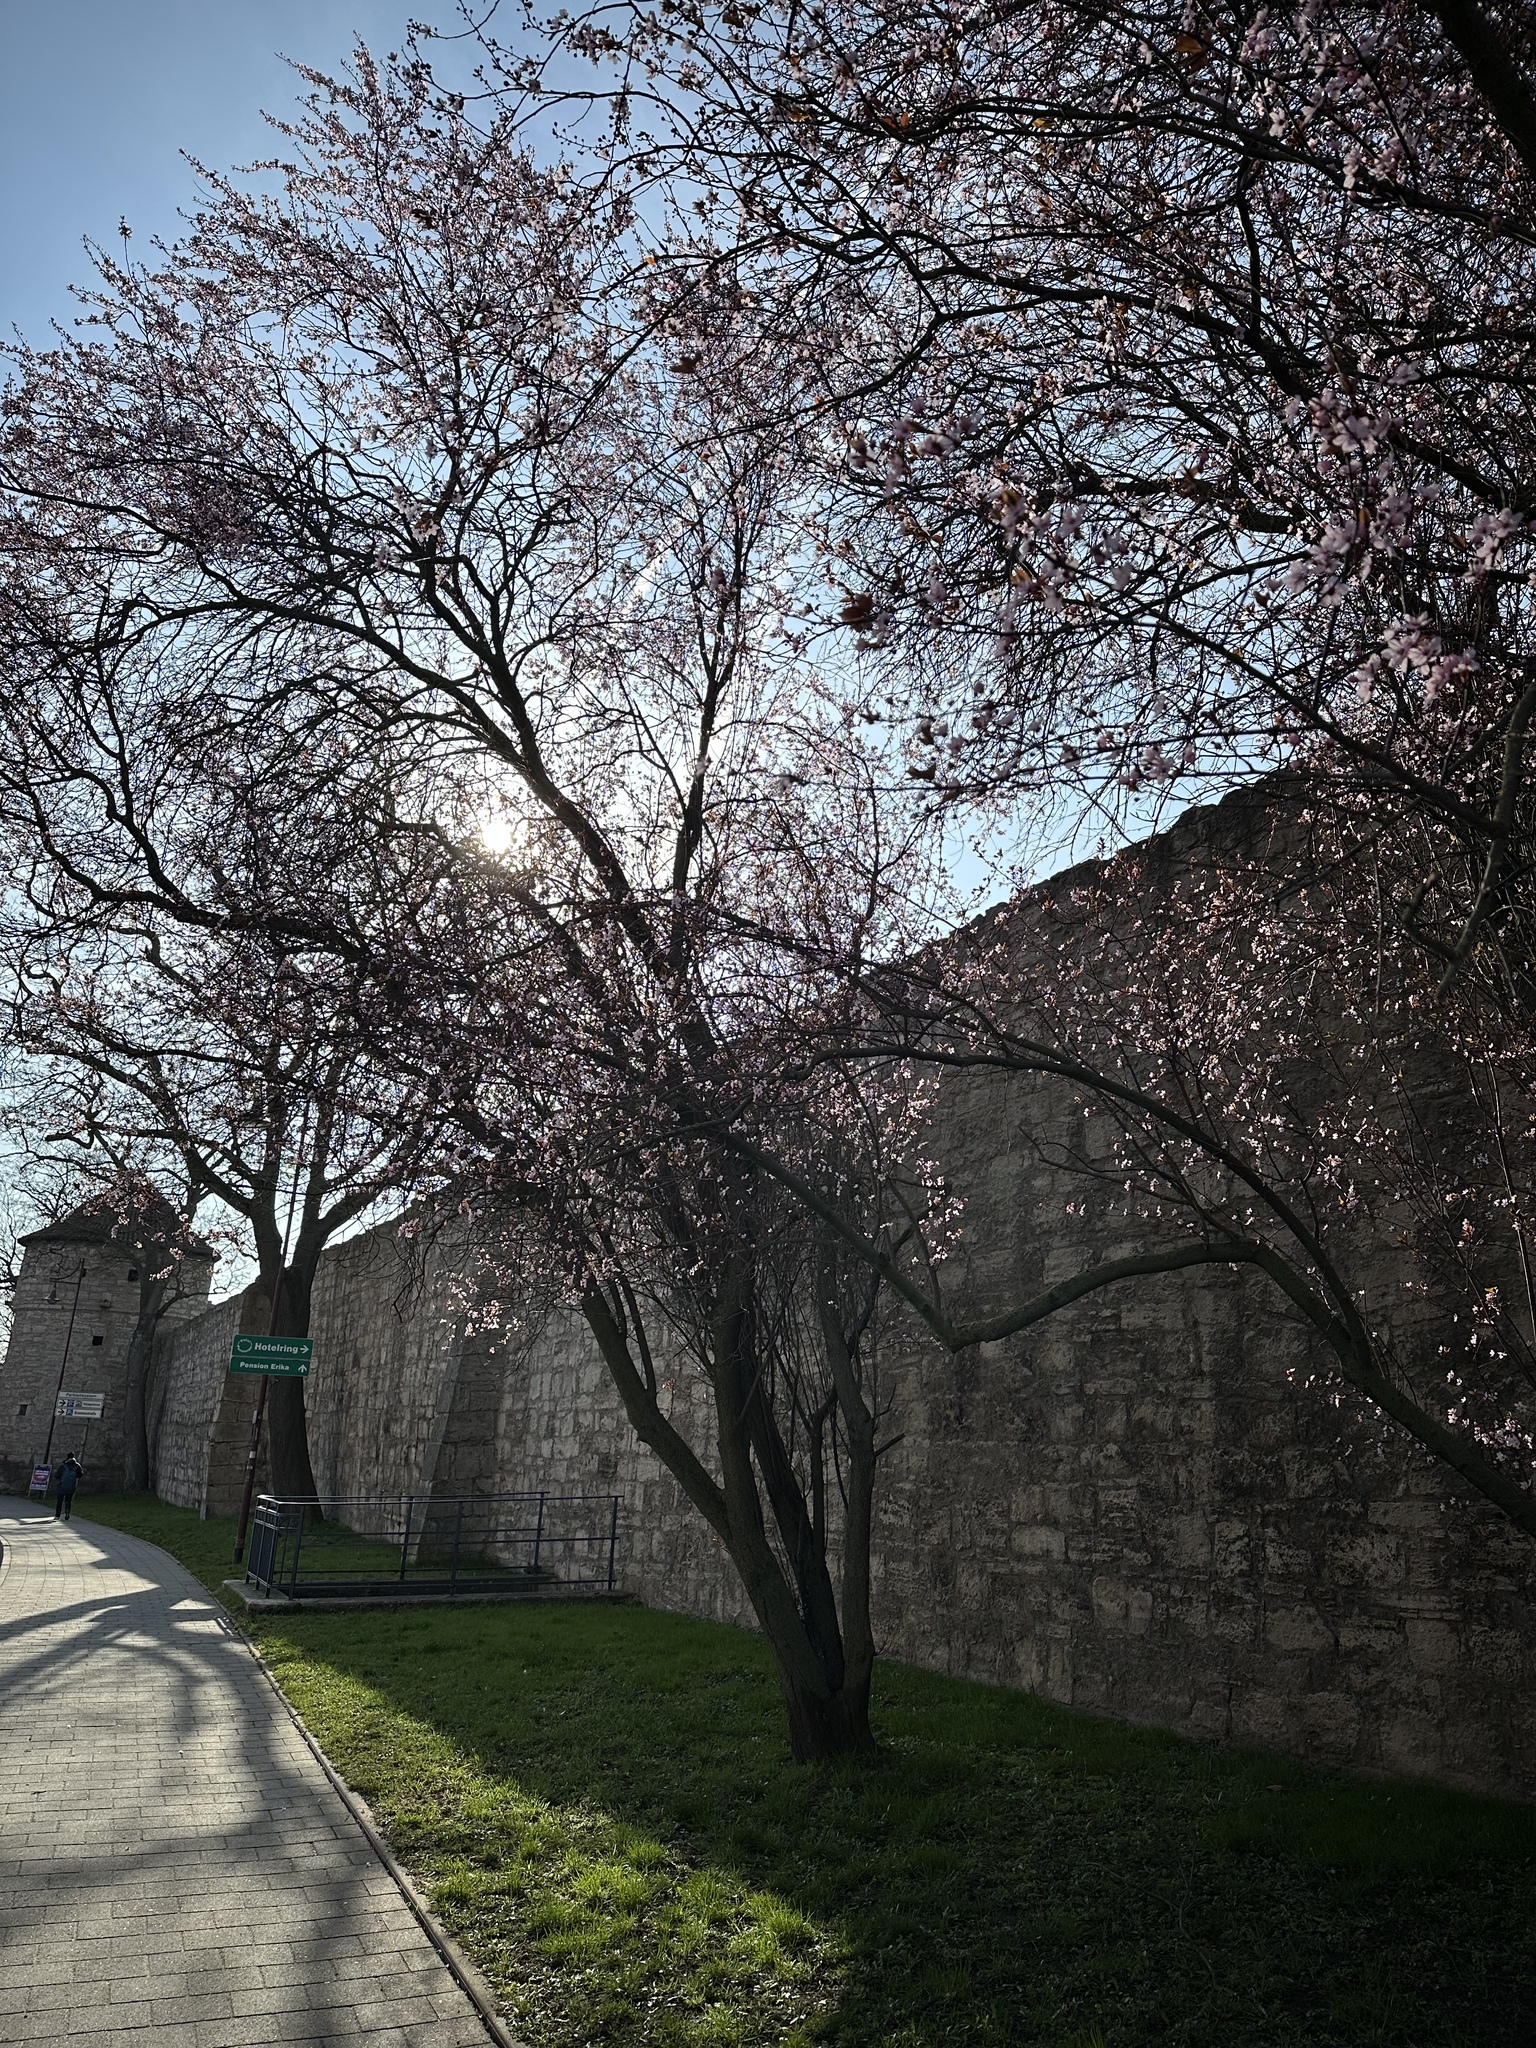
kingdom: Plantae
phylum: Tracheophyta
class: Magnoliopsida
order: Rosales
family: Rosaceae
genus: Prunus
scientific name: Prunus cerasifera
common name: Cherry plum
